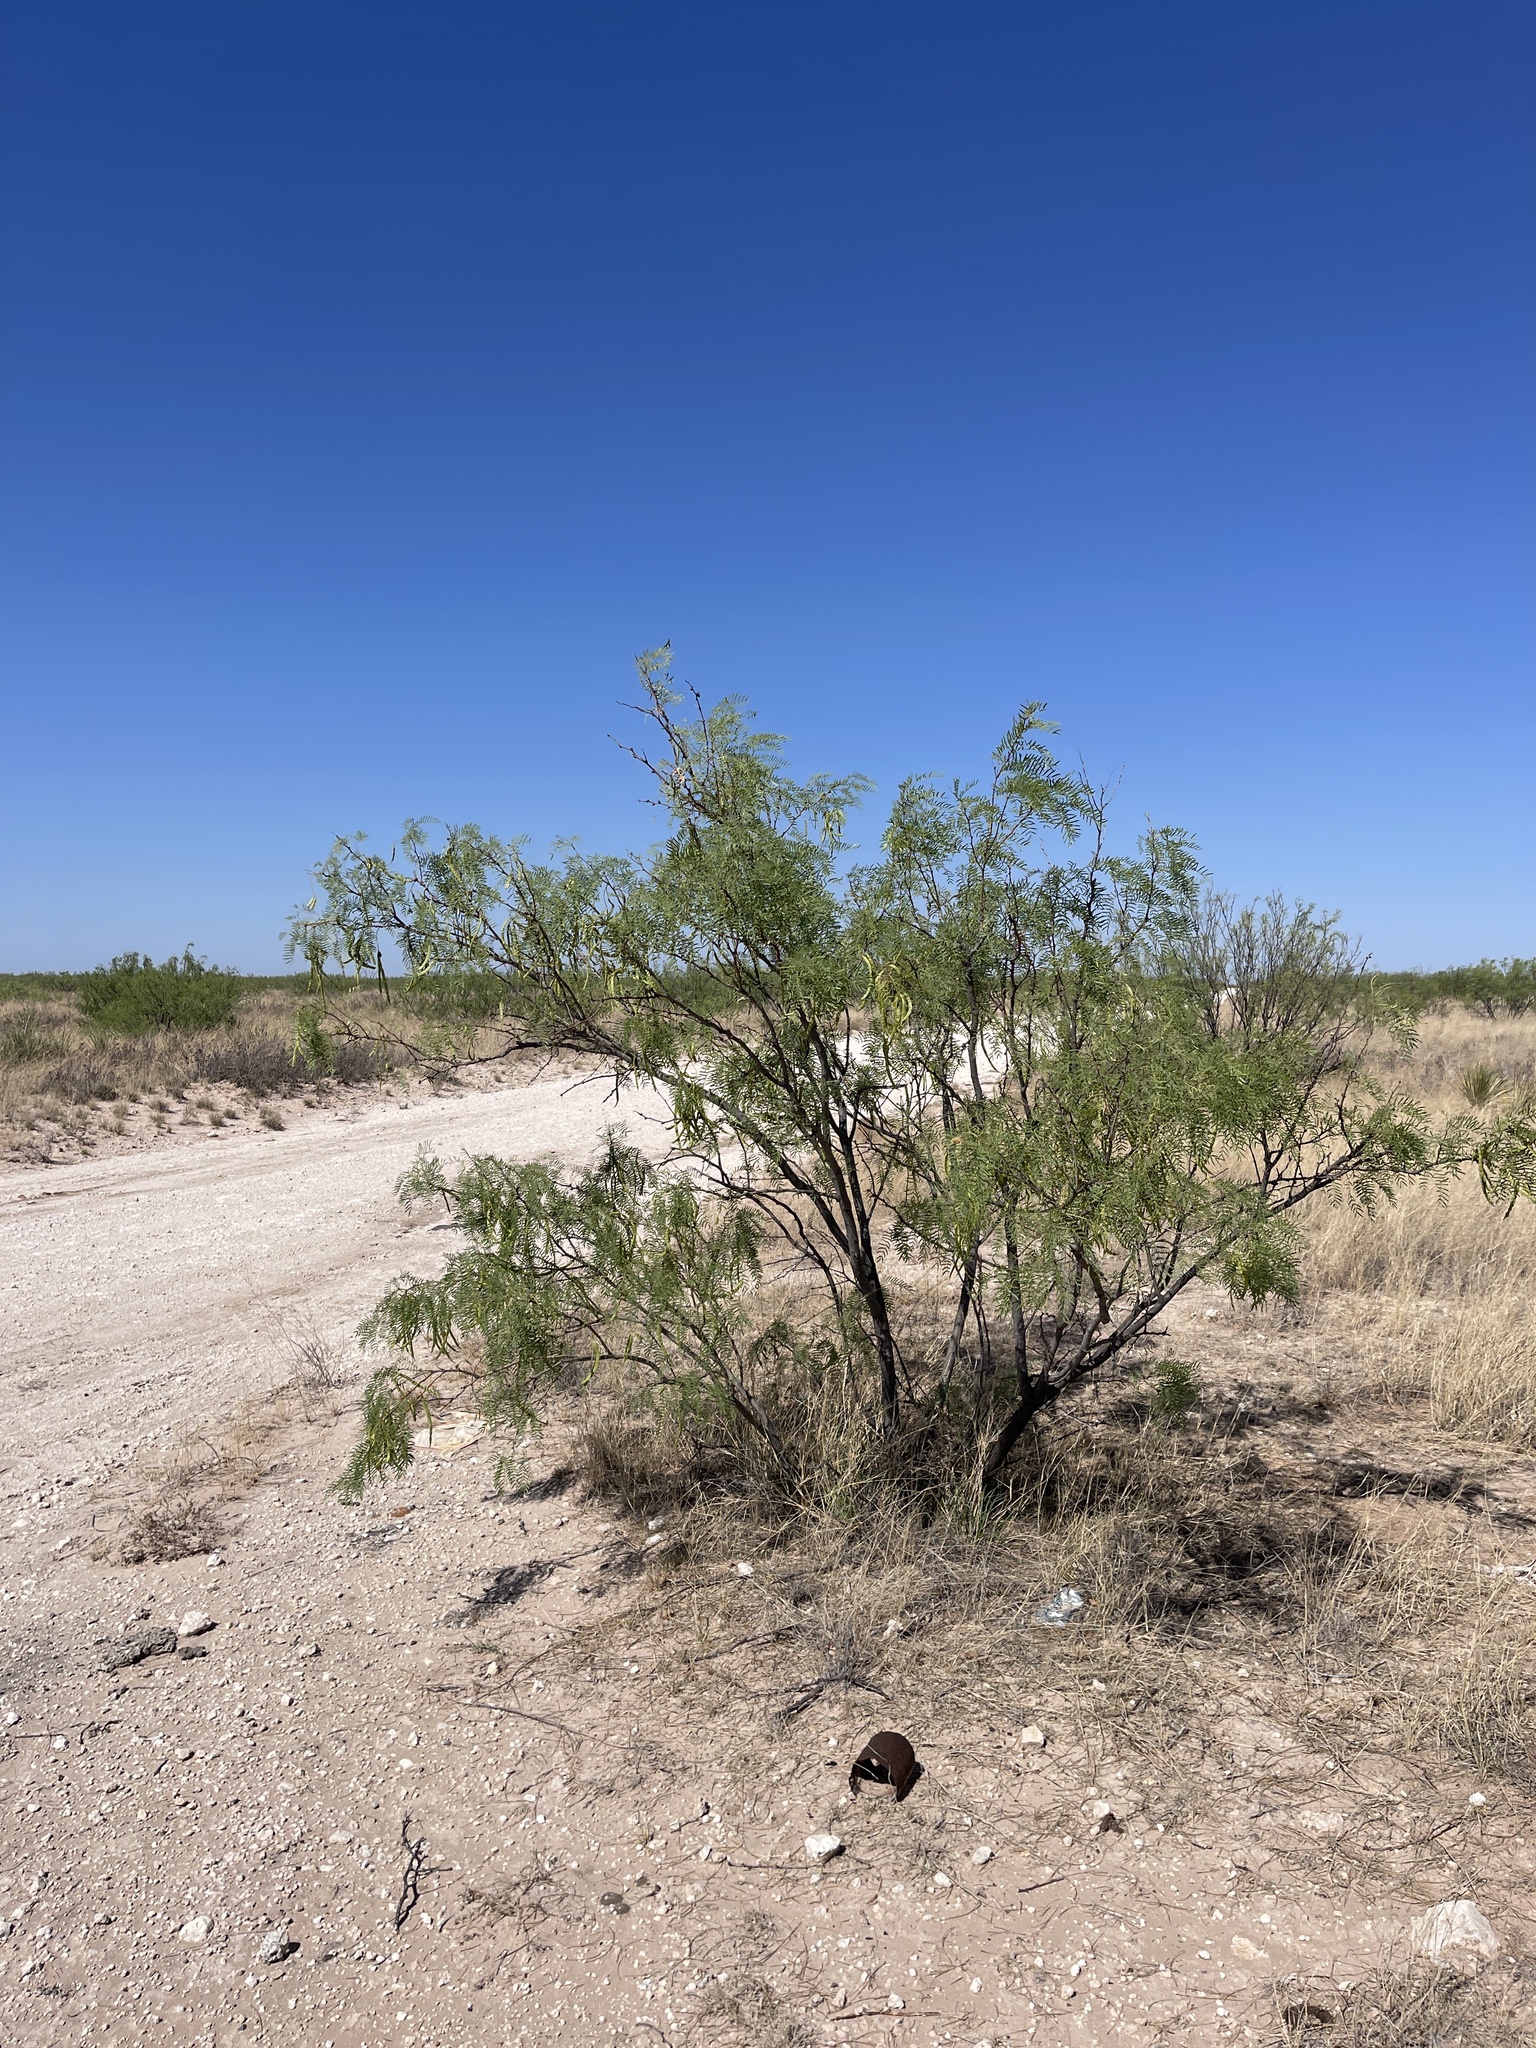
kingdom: Plantae
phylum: Tracheophyta
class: Magnoliopsida
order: Fabales
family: Fabaceae
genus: Prosopis
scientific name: Prosopis glandulosa
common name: Honey mesquite
